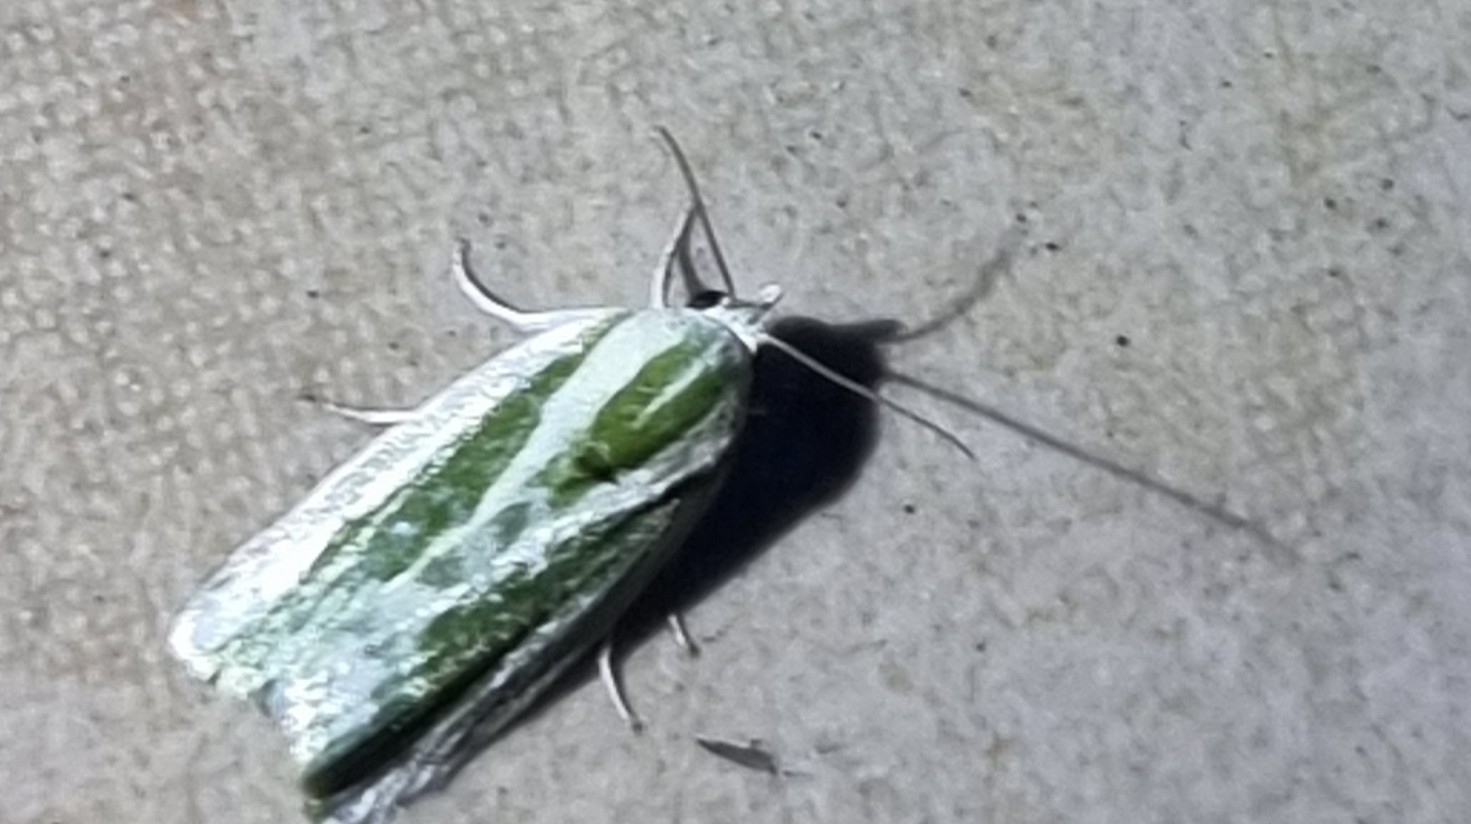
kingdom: Animalia
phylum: Arthropoda
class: Insecta
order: Lepidoptera
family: Nolidae
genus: Earias
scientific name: Earias huegeliana
